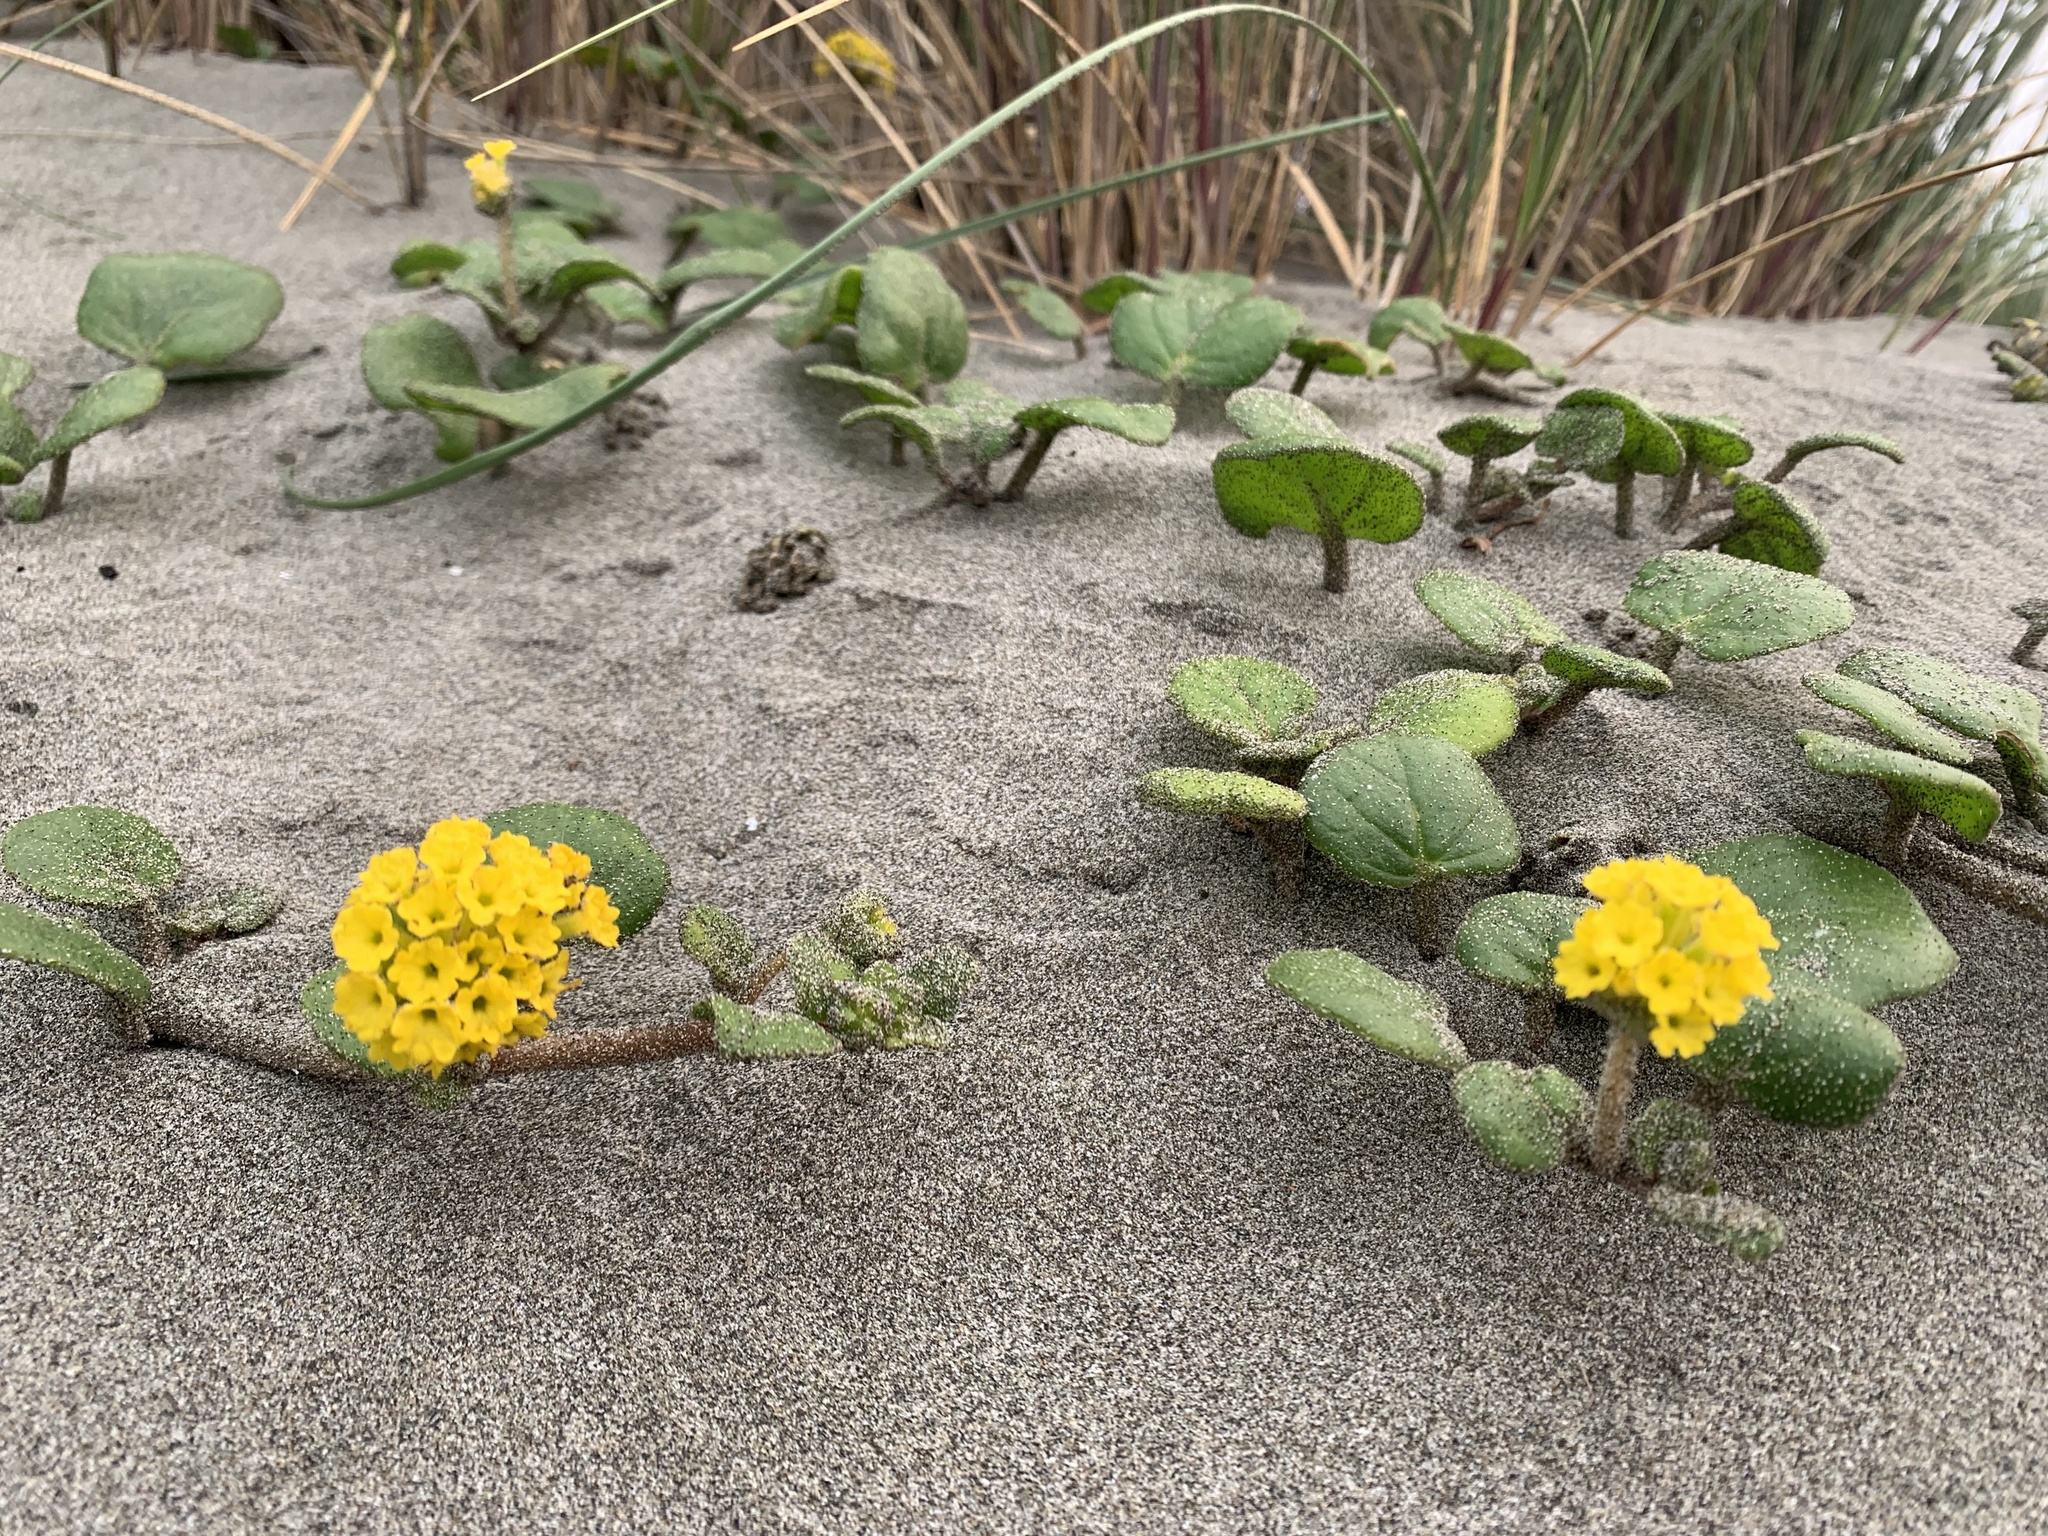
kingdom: Plantae
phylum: Tracheophyta
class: Magnoliopsida
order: Caryophyllales
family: Nyctaginaceae
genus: Abronia
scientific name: Abronia latifolia
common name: Yellow sand-verbena
